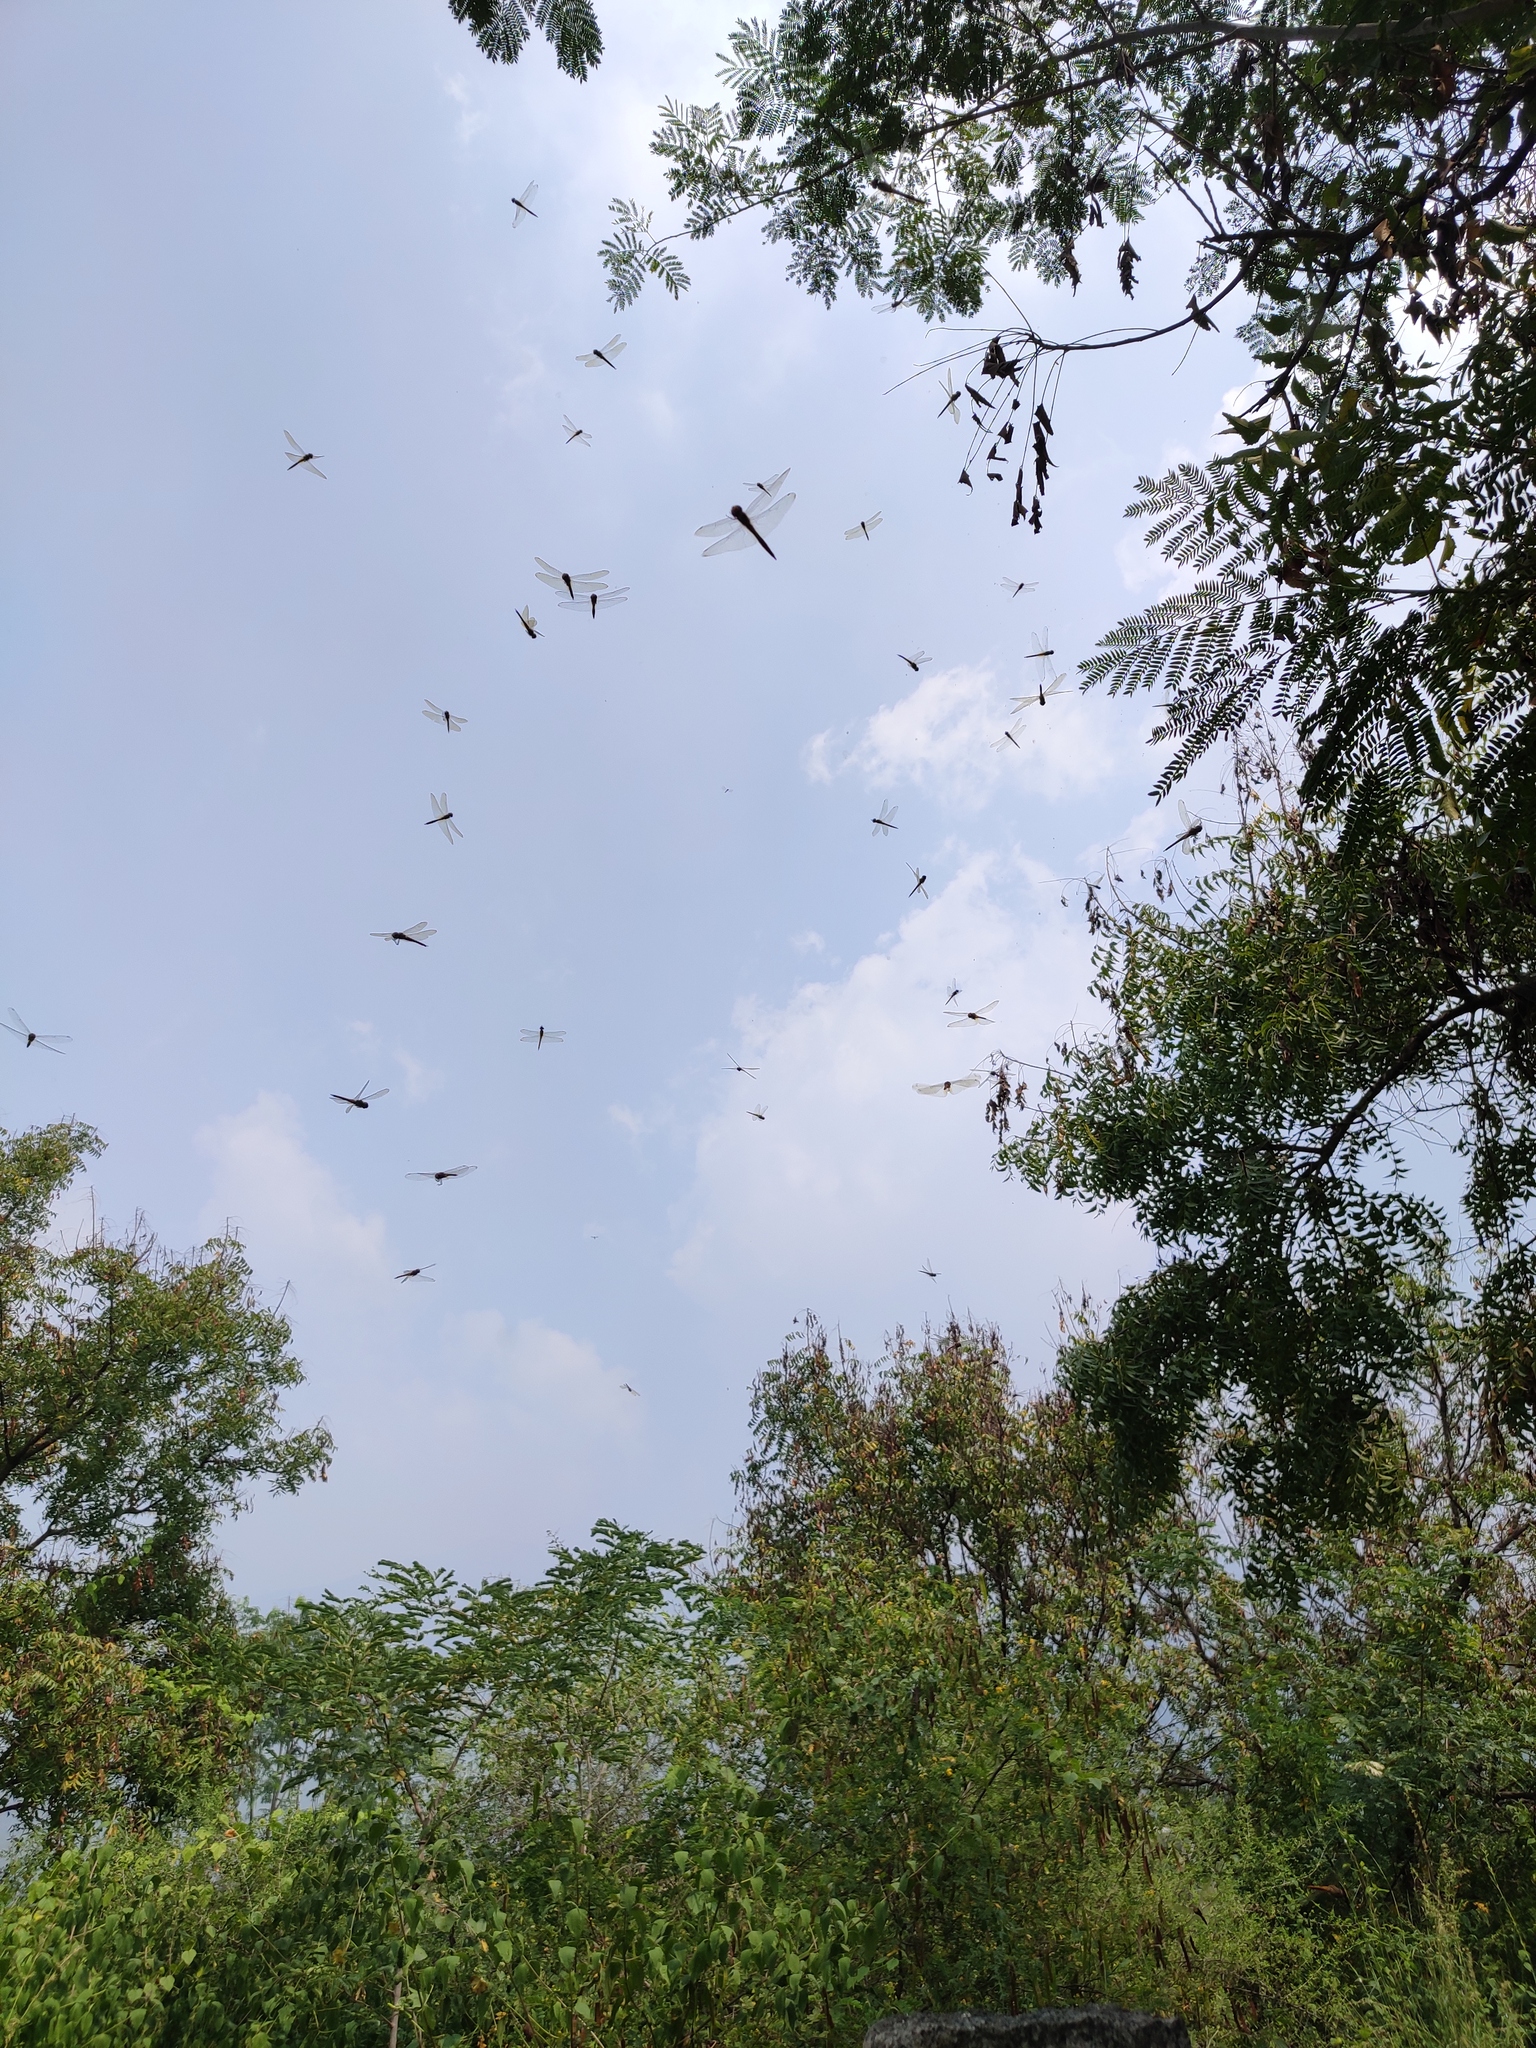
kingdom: Animalia
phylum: Arthropoda
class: Insecta
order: Odonata
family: Libellulidae
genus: Pantala
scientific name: Pantala flavescens
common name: Wandering glider
